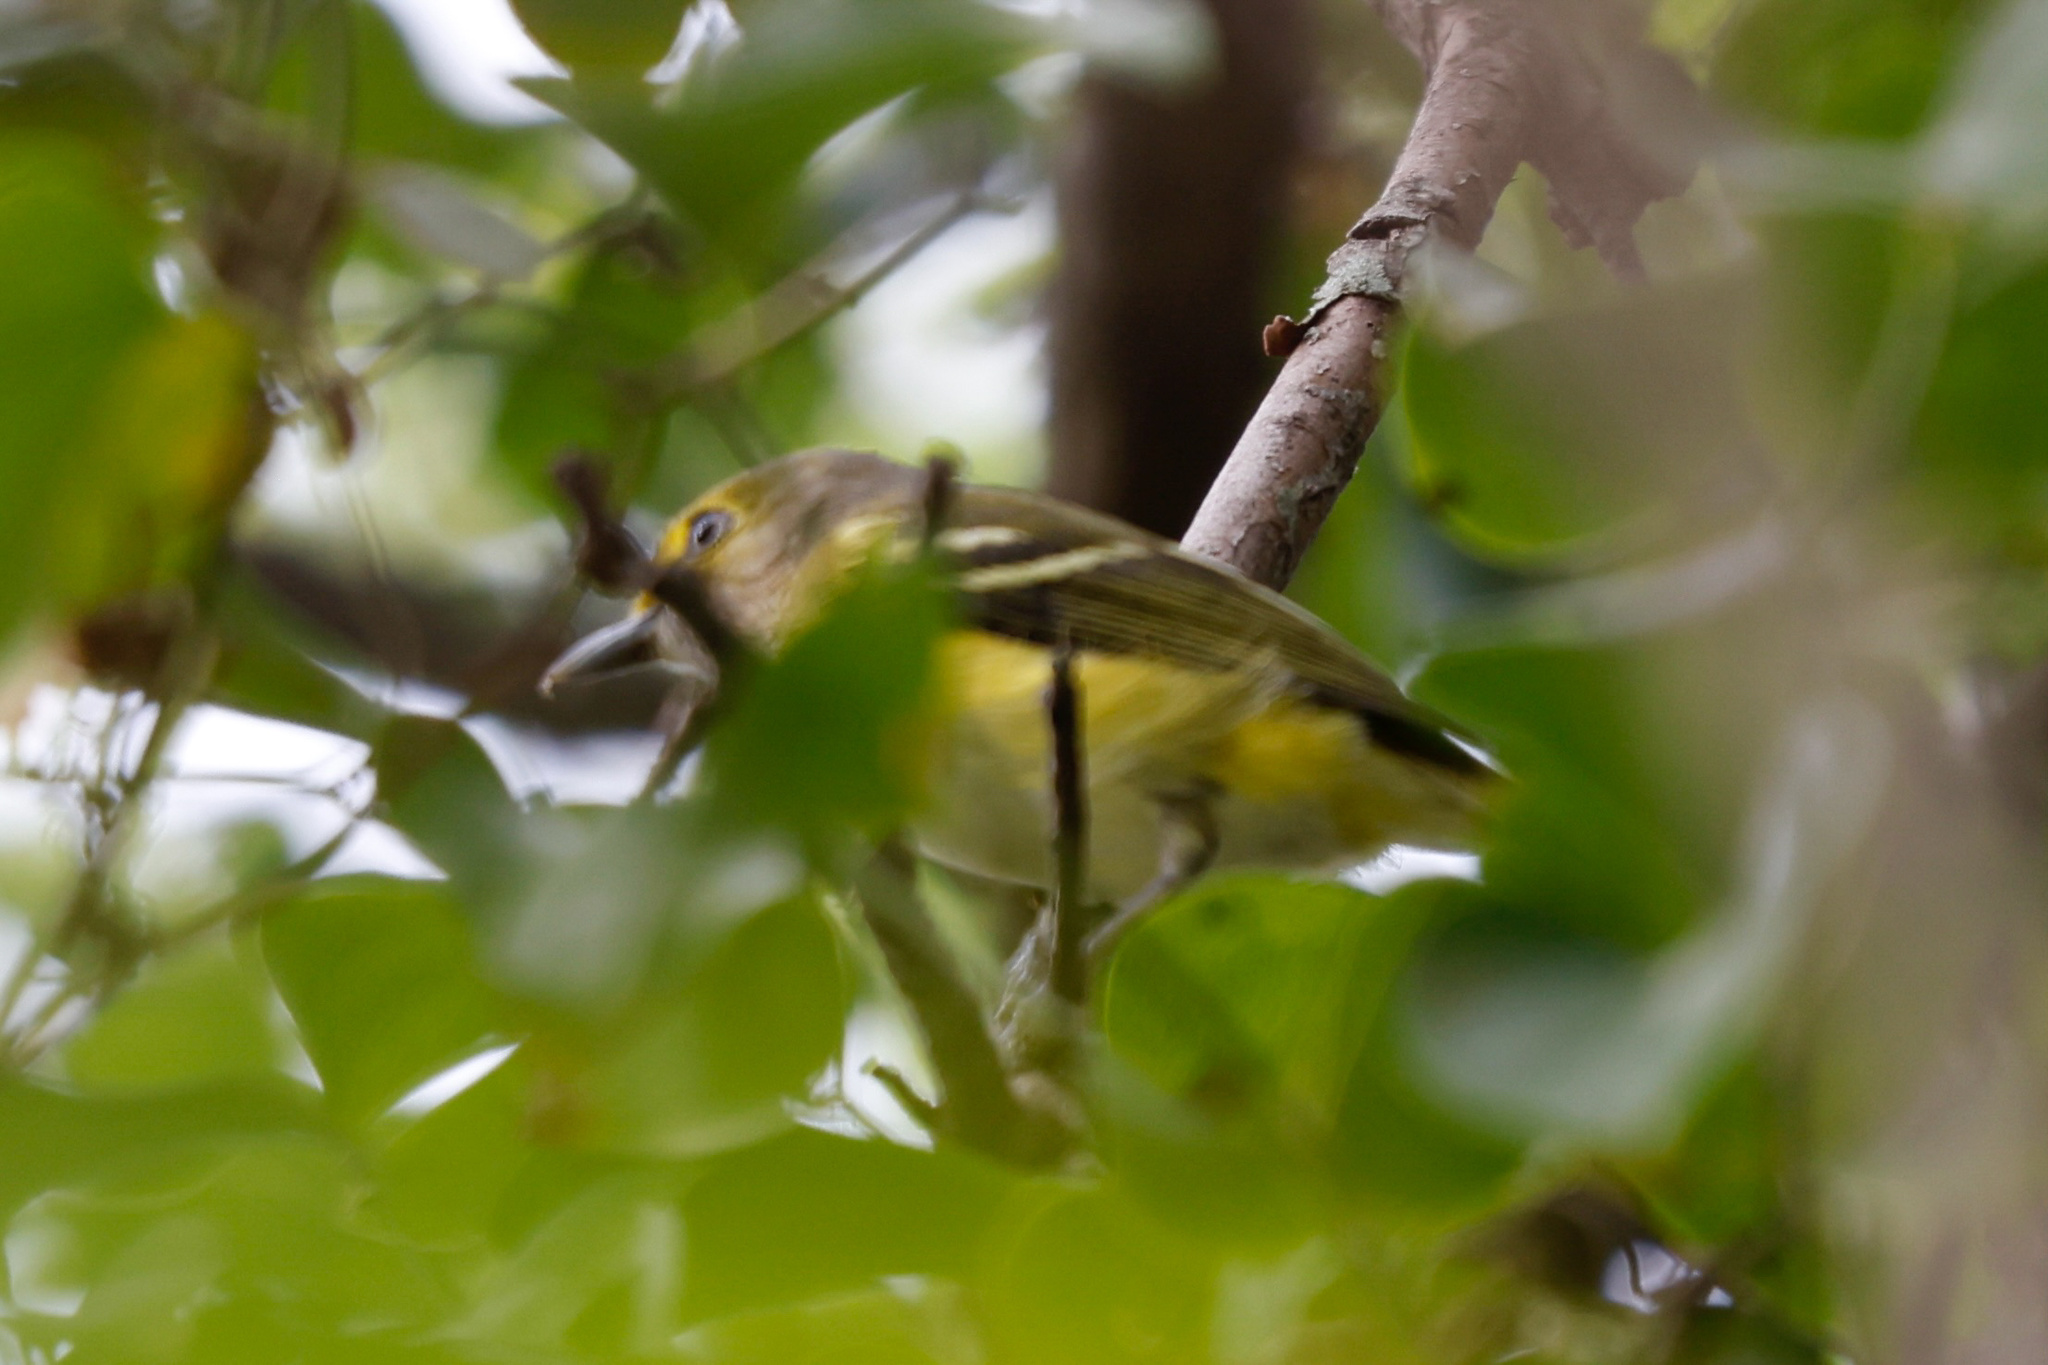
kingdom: Animalia
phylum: Chordata
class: Aves
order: Passeriformes
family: Vireonidae
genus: Vireo
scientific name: Vireo griseus
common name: White-eyed vireo
